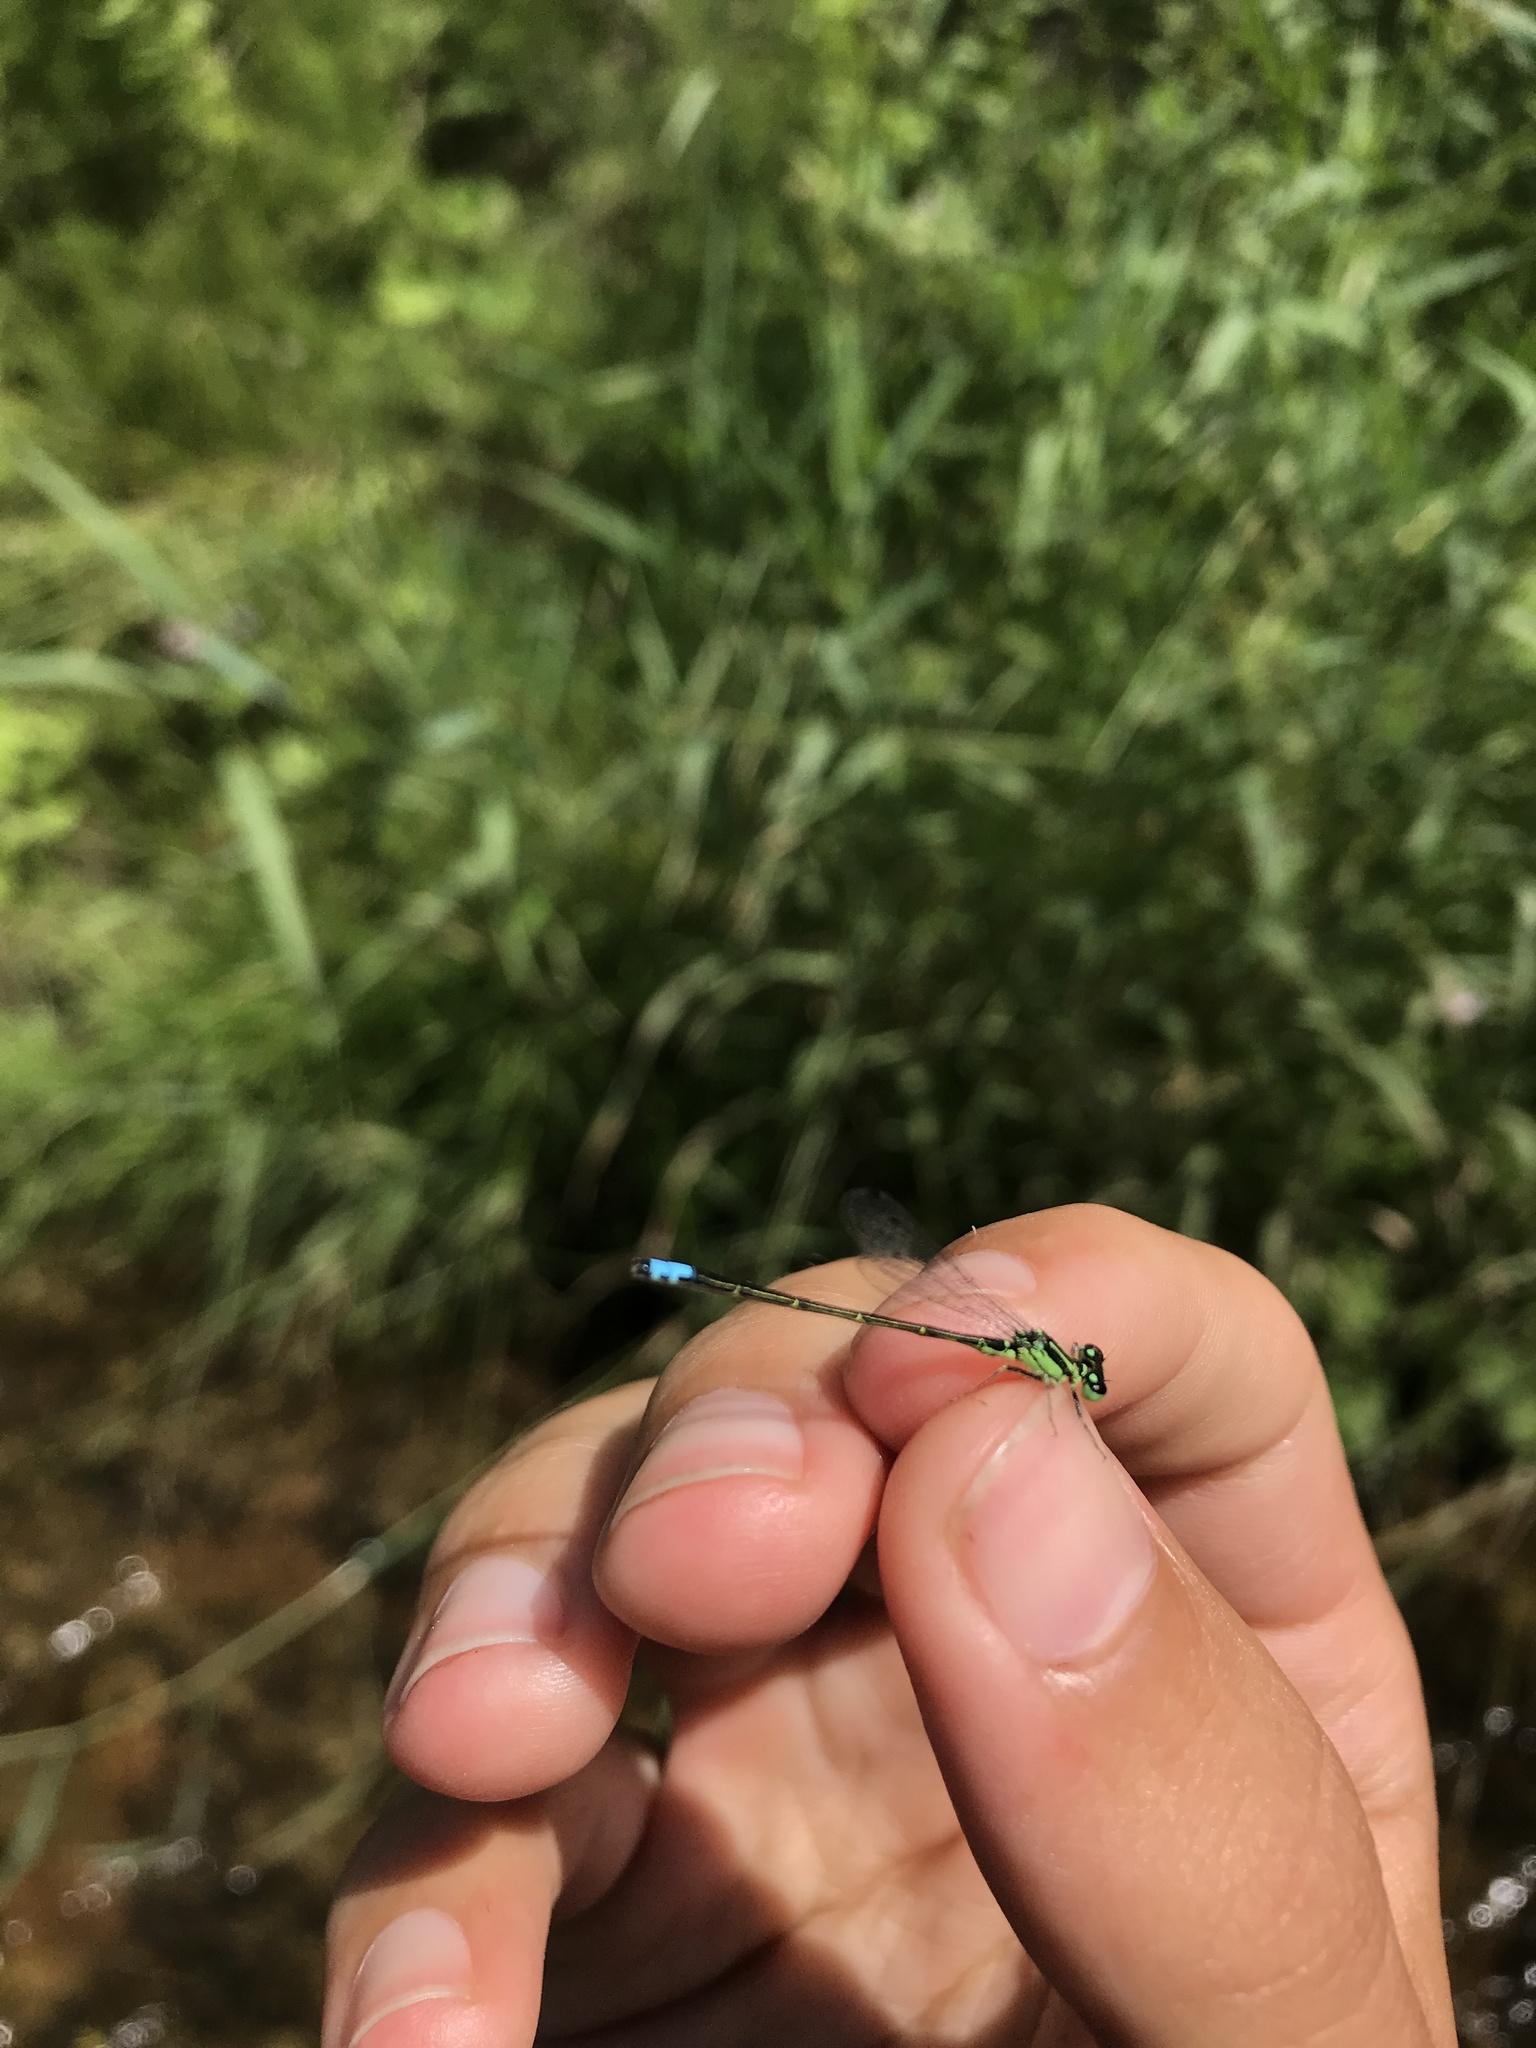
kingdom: Animalia
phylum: Arthropoda
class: Insecta
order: Odonata
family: Coenagrionidae
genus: Ischnura
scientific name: Ischnura verticalis
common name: Eastern forktail
